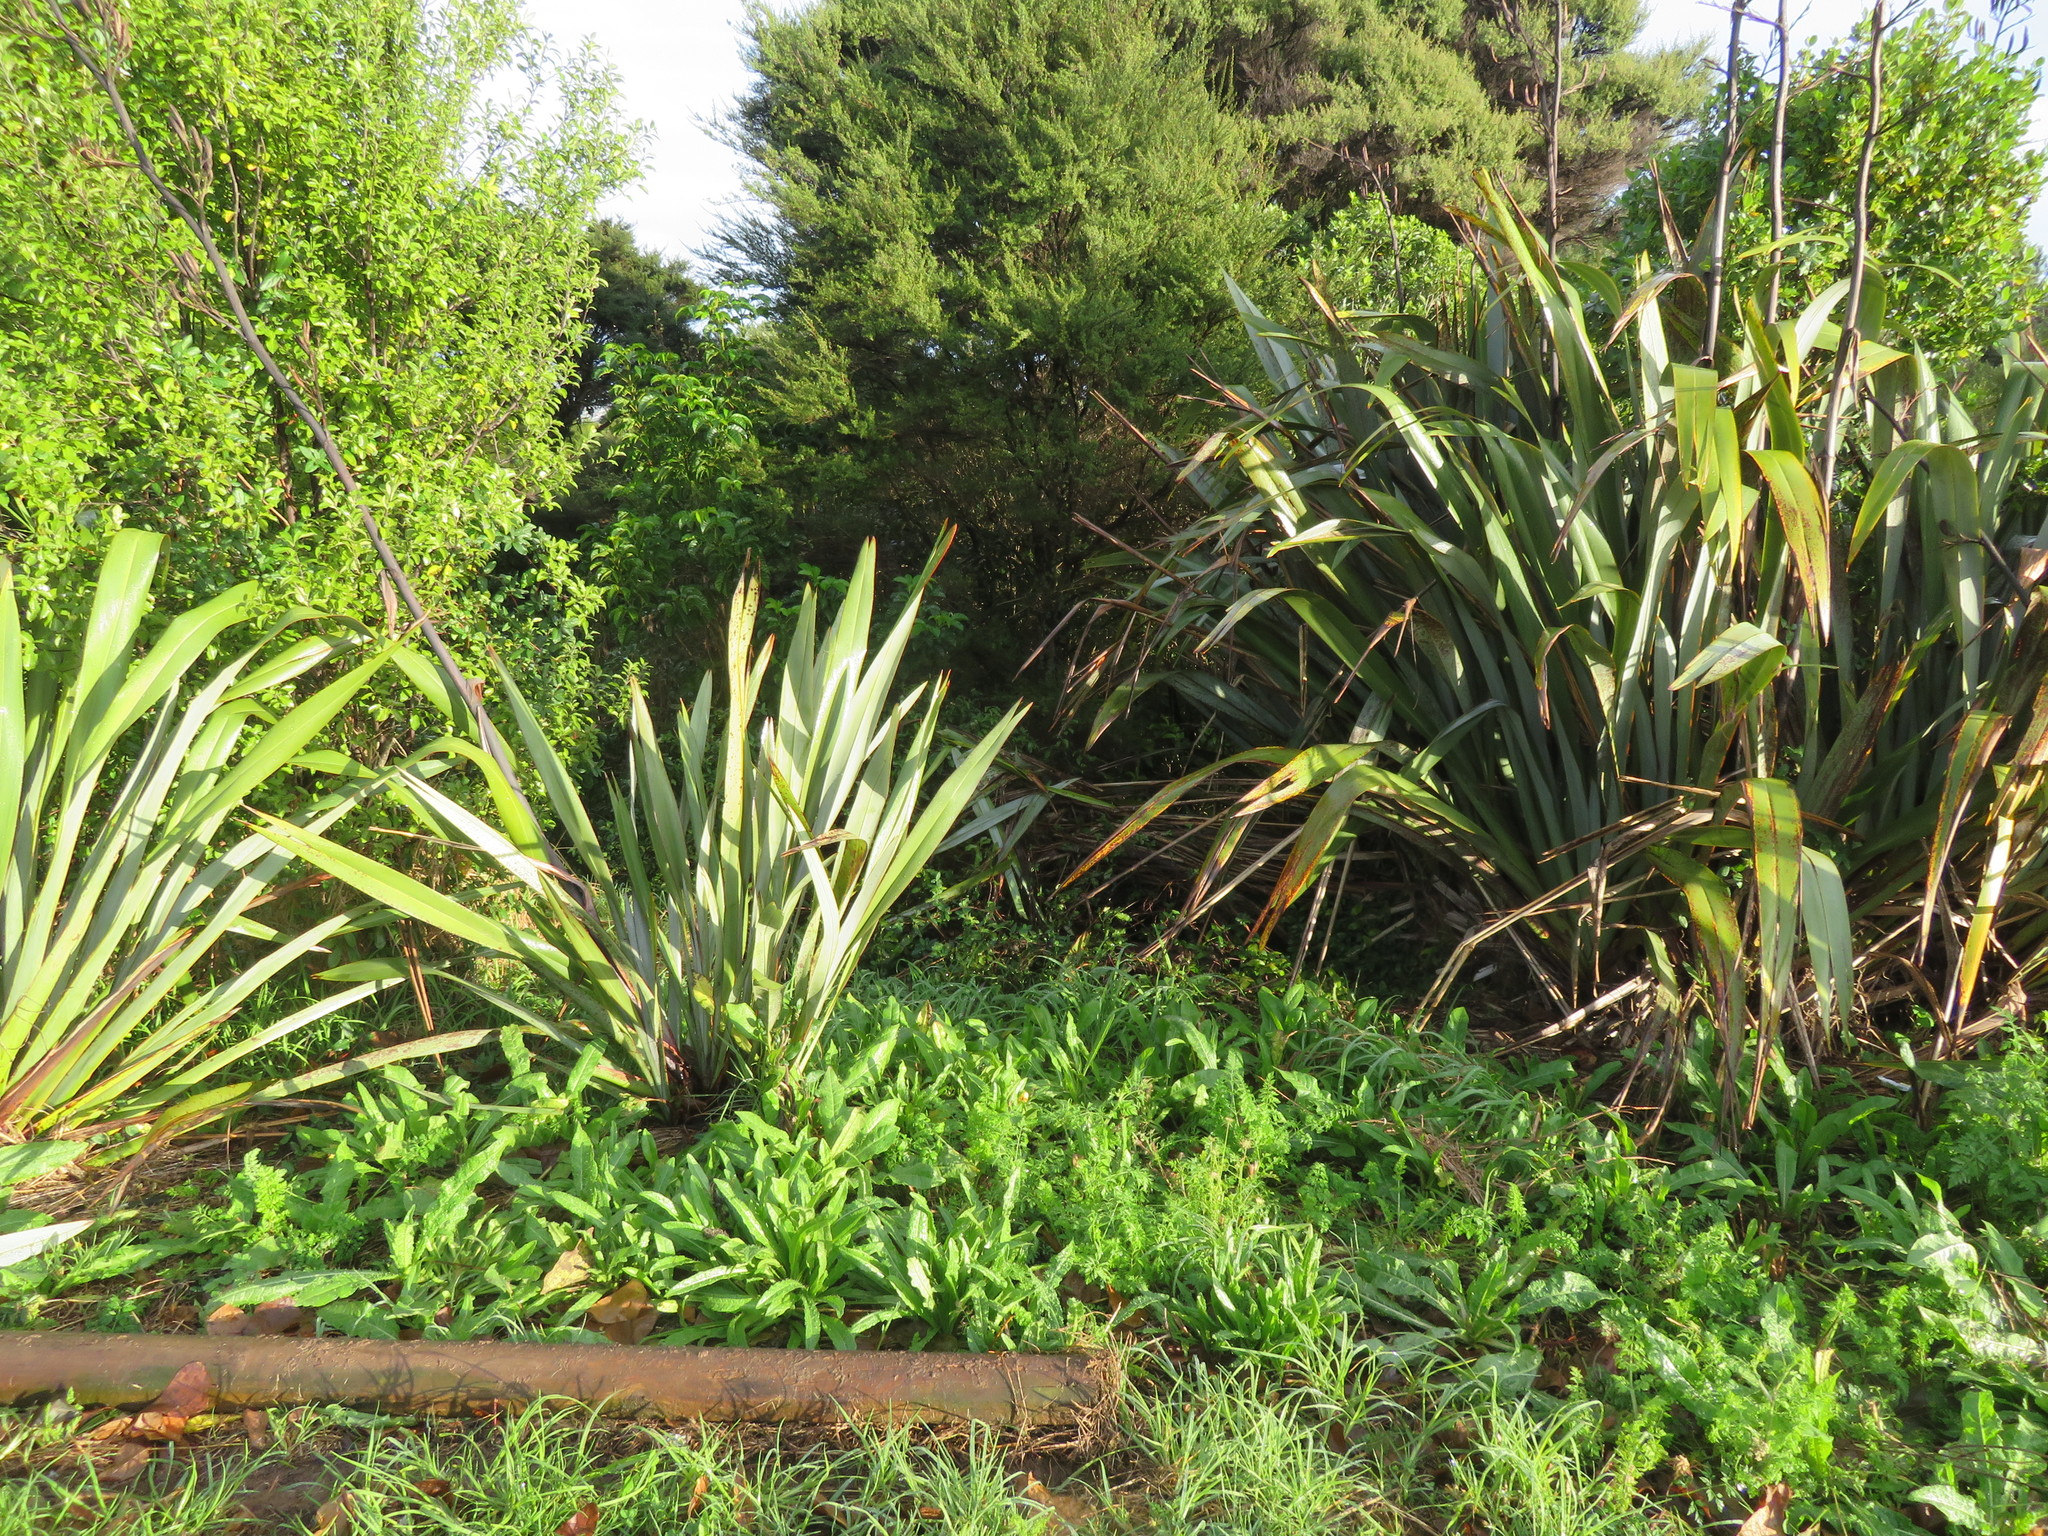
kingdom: Plantae
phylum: Tracheophyta
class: Magnoliopsida
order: Asterales
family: Asteraceae
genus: Helminthotheca
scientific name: Helminthotheca echioides
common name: Ox-tongue
